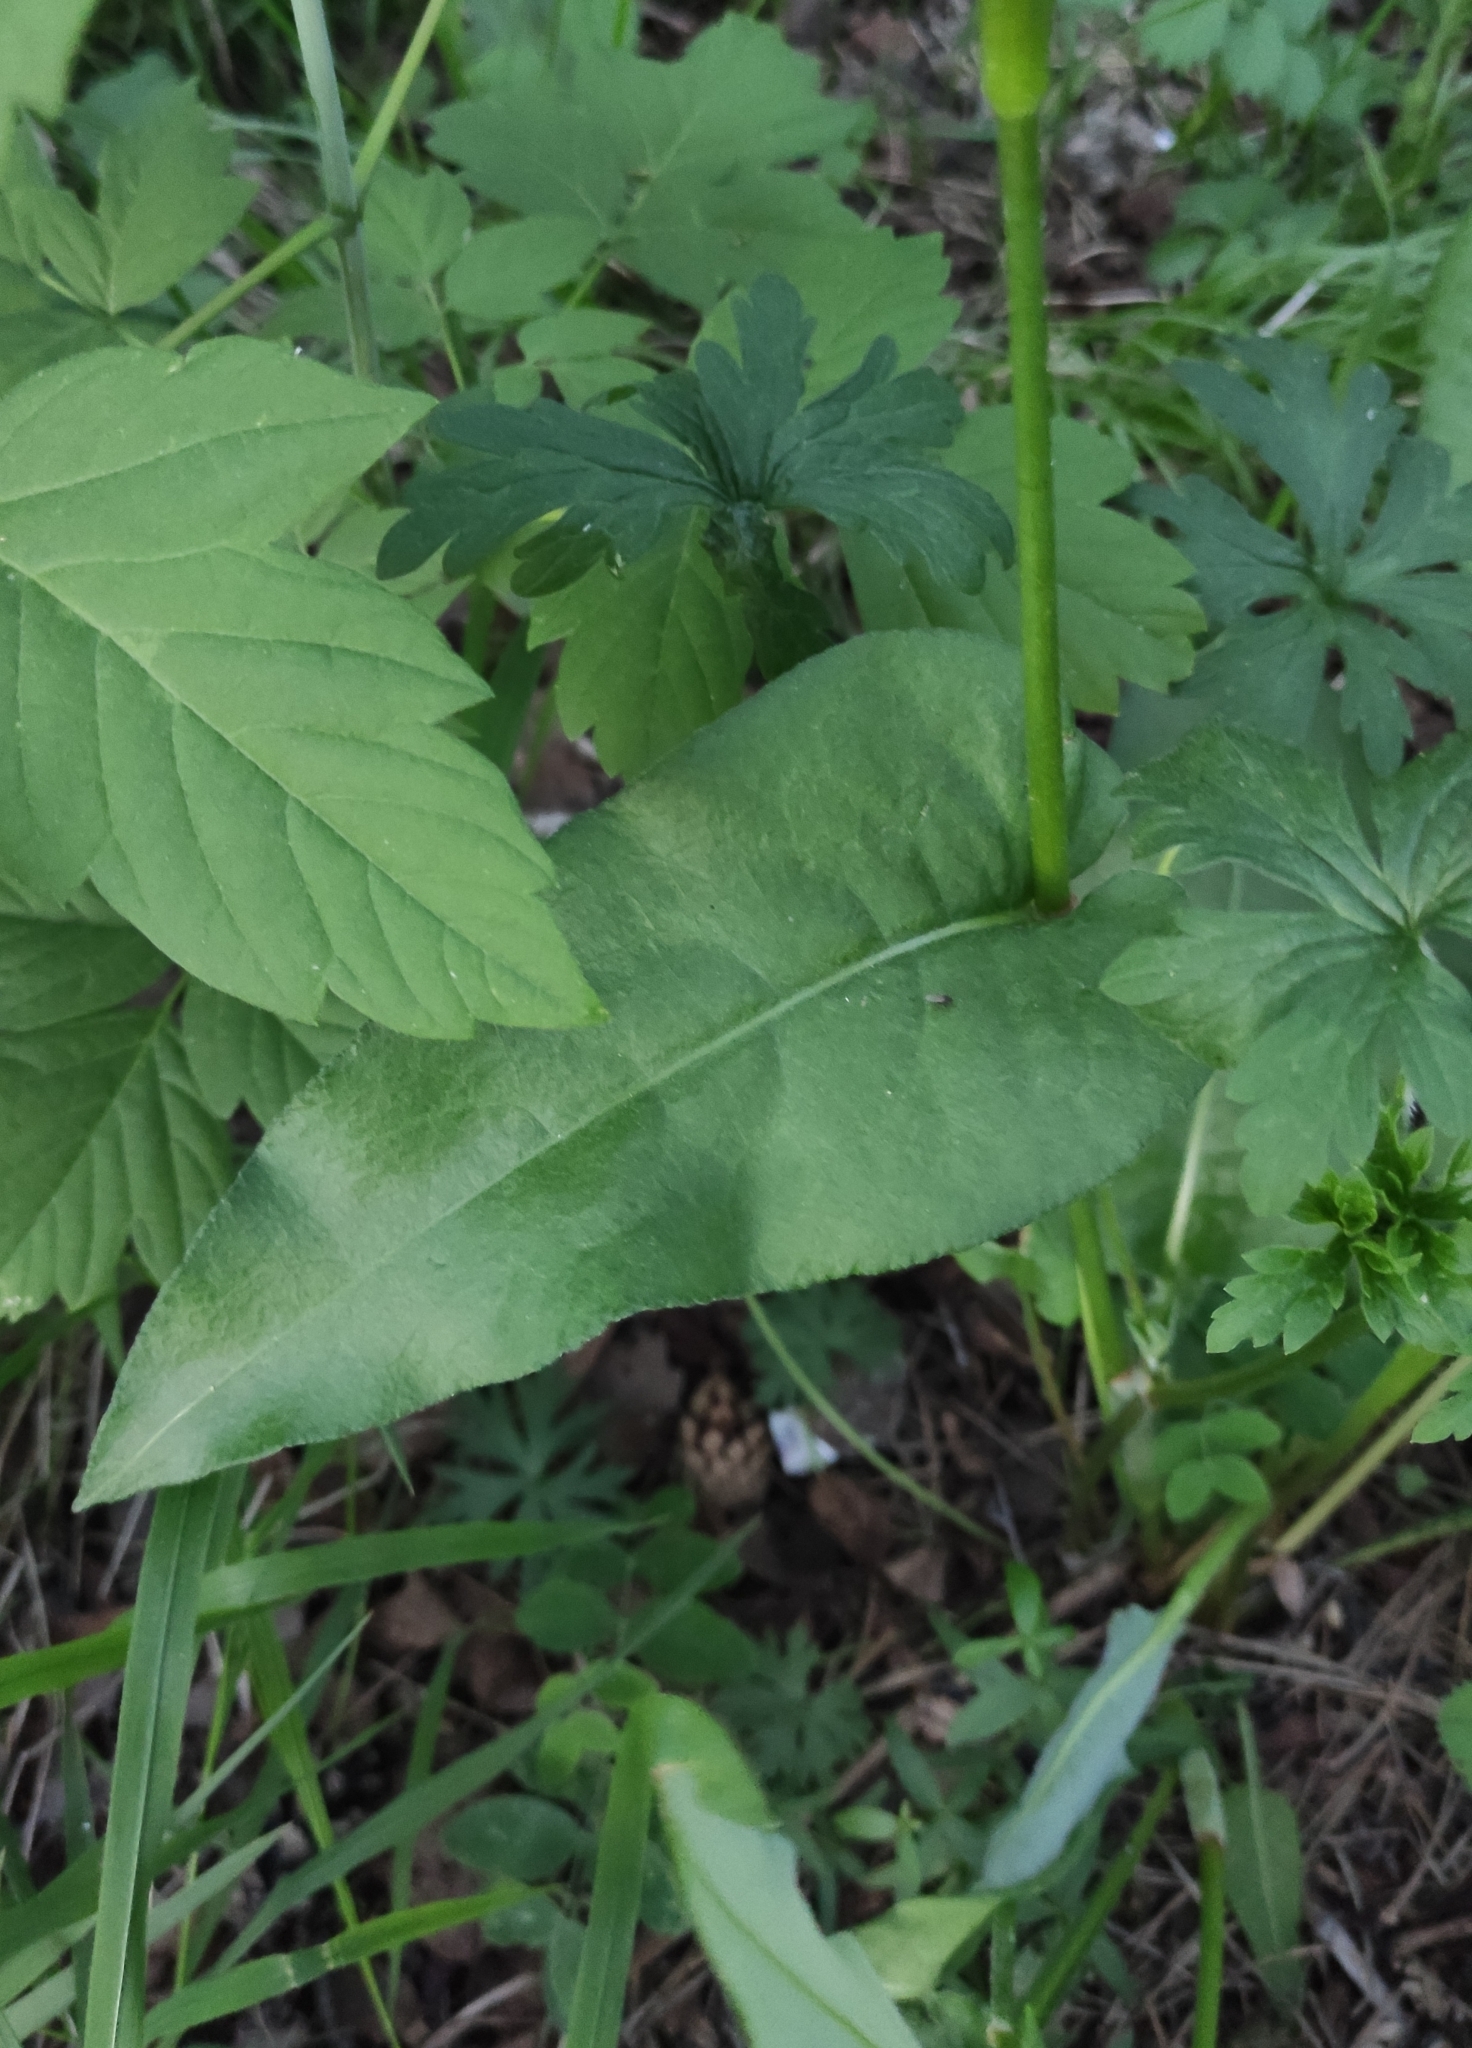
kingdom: Plantae
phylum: Tracheophyta
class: Magnoliopsida
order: Caryophyllales
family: Polygonaceae
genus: Bistorta
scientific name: Bistorta officinalis
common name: Common bistort
